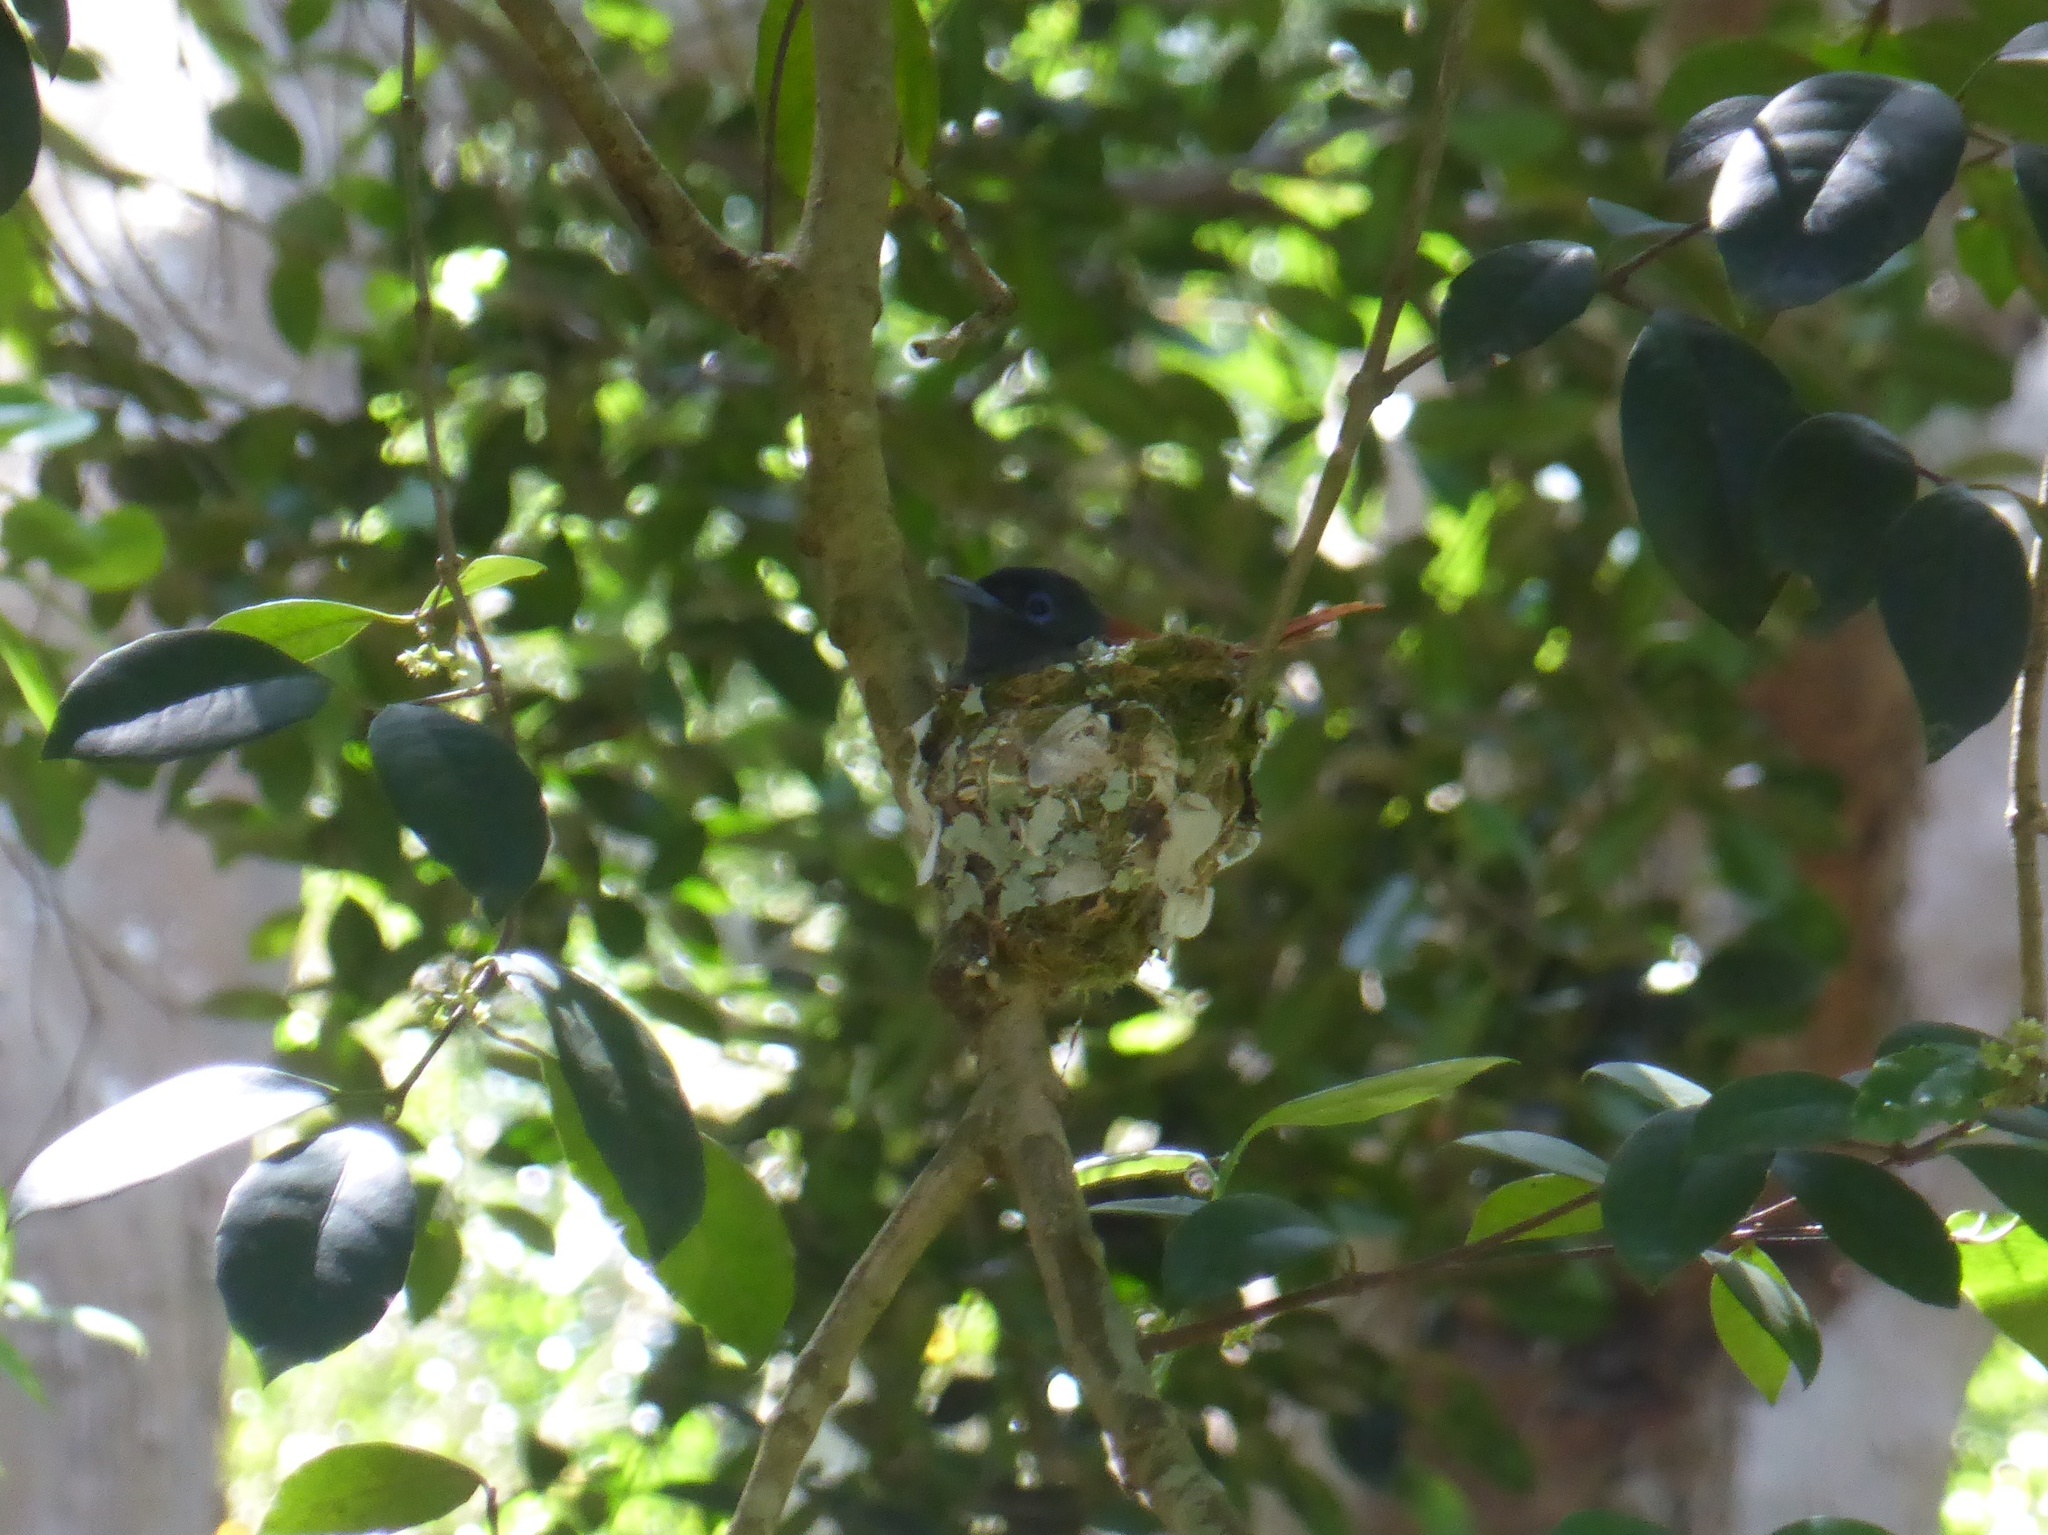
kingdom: Animalia
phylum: Chordata
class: Aves
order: Passeriformes
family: Monarchidae
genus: Terpsiphone
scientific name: Terpsiphone viridis
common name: African paradise flycatcher
